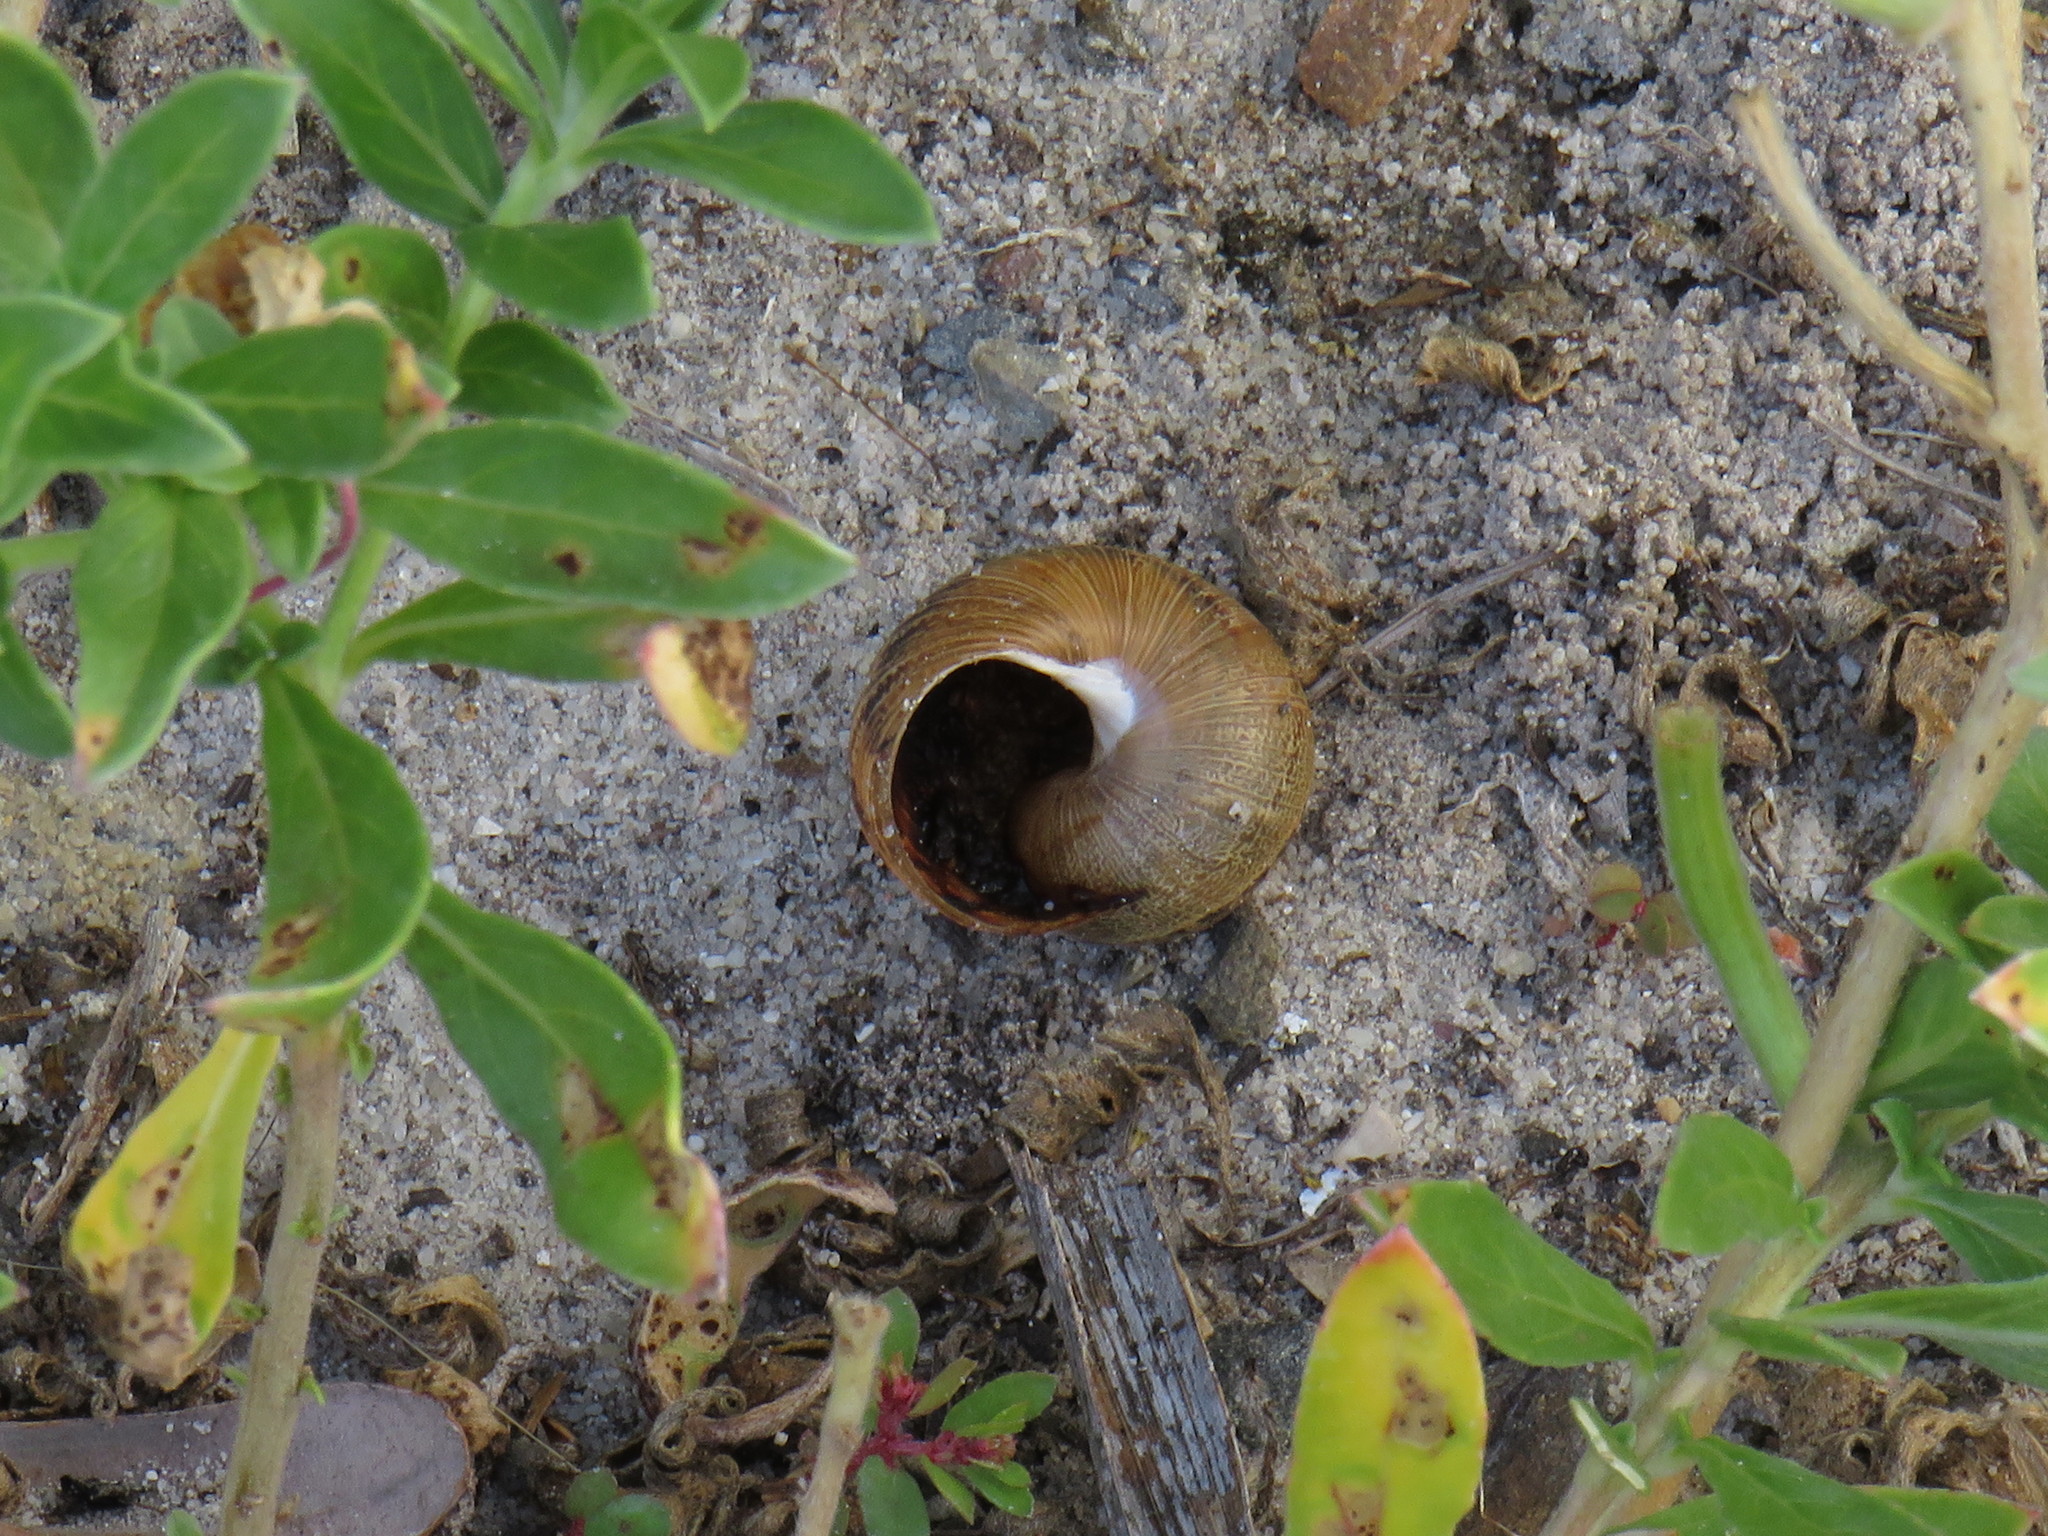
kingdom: Animalia
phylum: Mollusca
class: Gastropoda
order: Stylommatophora
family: Helicidae
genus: Cornu
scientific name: Cornu aspersum
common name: Brown garden snail
